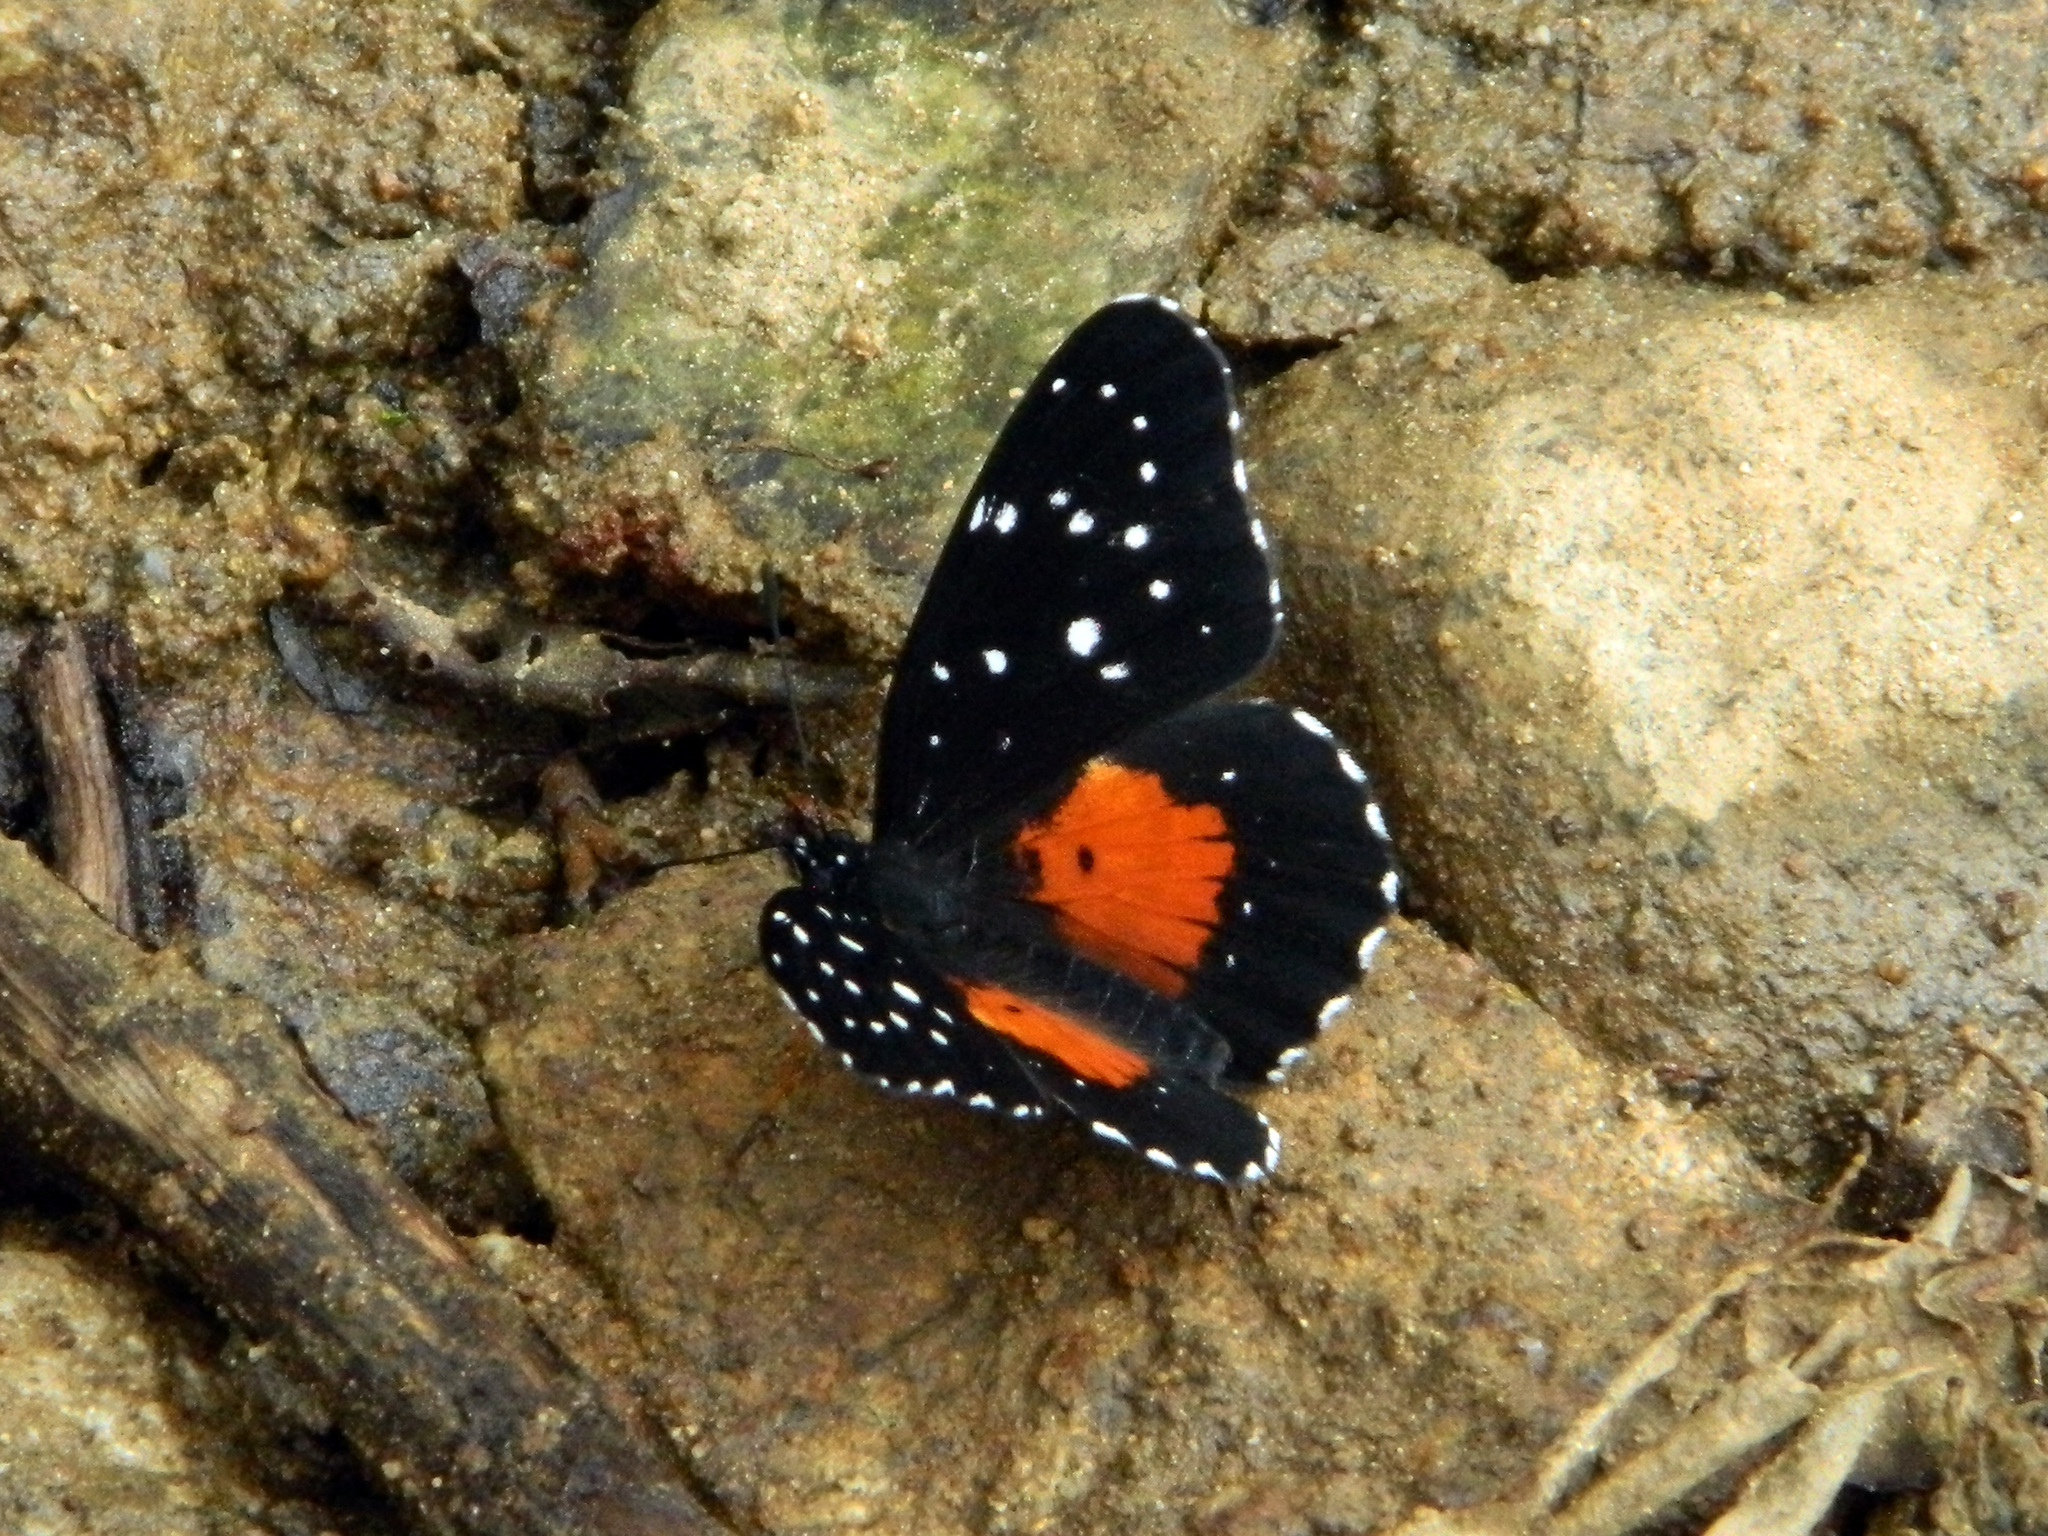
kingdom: Animalia
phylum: Arthropoda
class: Insecta
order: Lepidoptera
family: Nymphalidae
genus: Chlosyne
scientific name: Chlosyne janais
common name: Crimson patch
